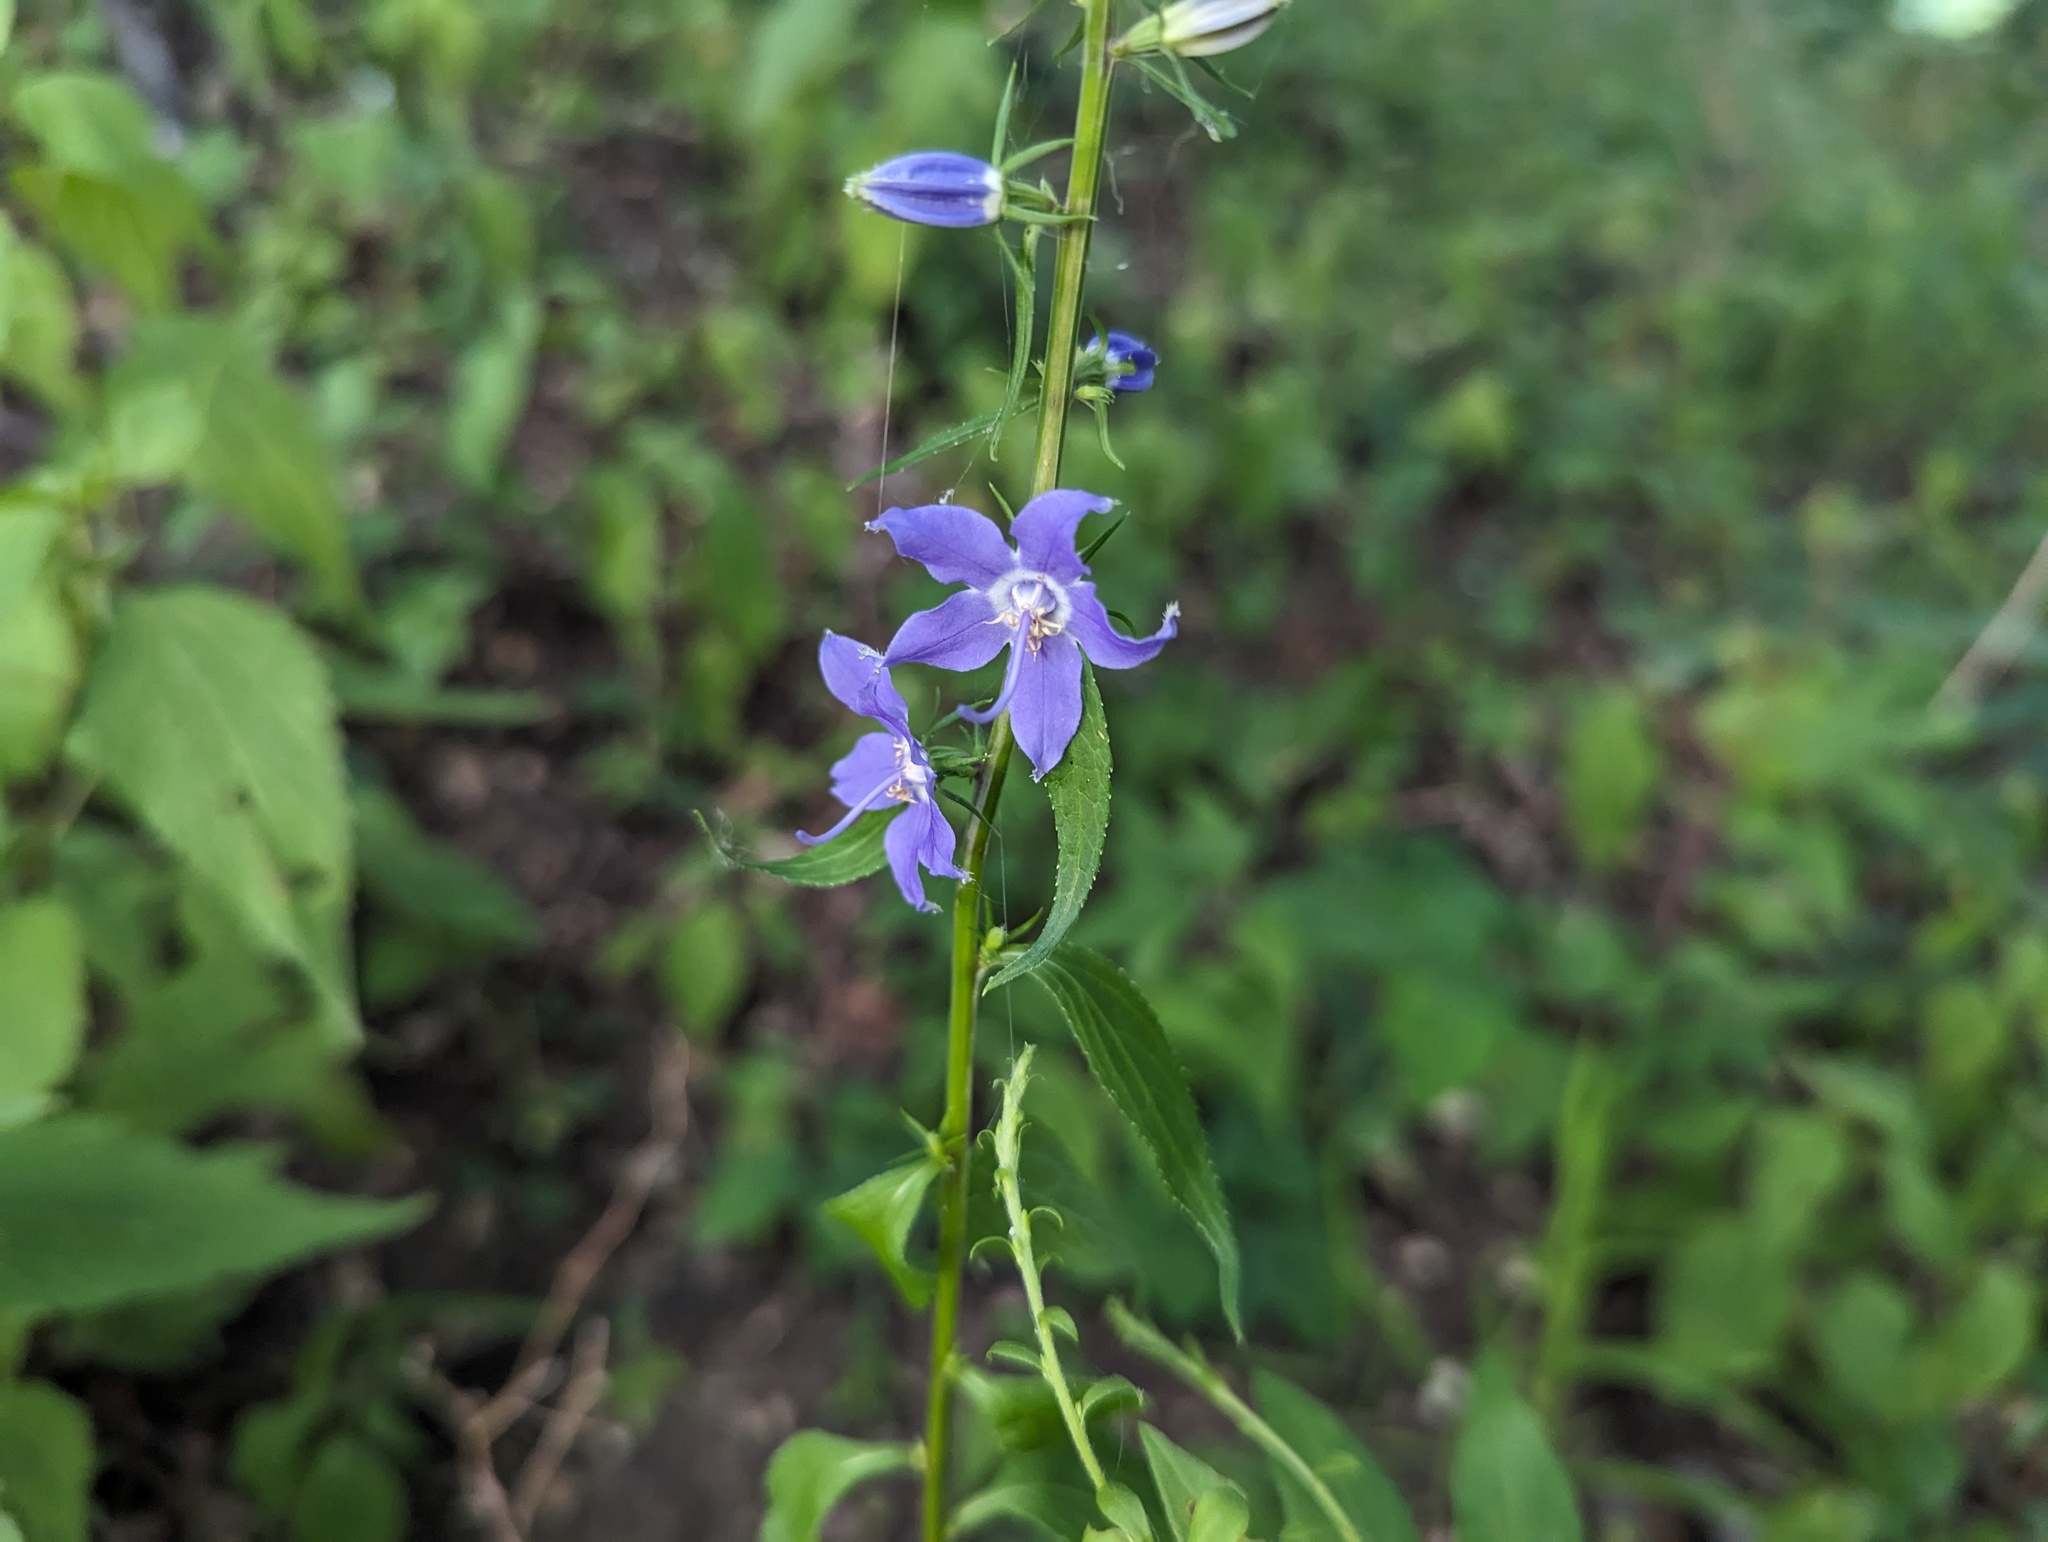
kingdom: Plantae
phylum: Tracheophyta
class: Magnoliopsida
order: Asterales
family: Campanulaceae
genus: Campanulastrum
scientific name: Campanulastrum americanum
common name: American bellflower
